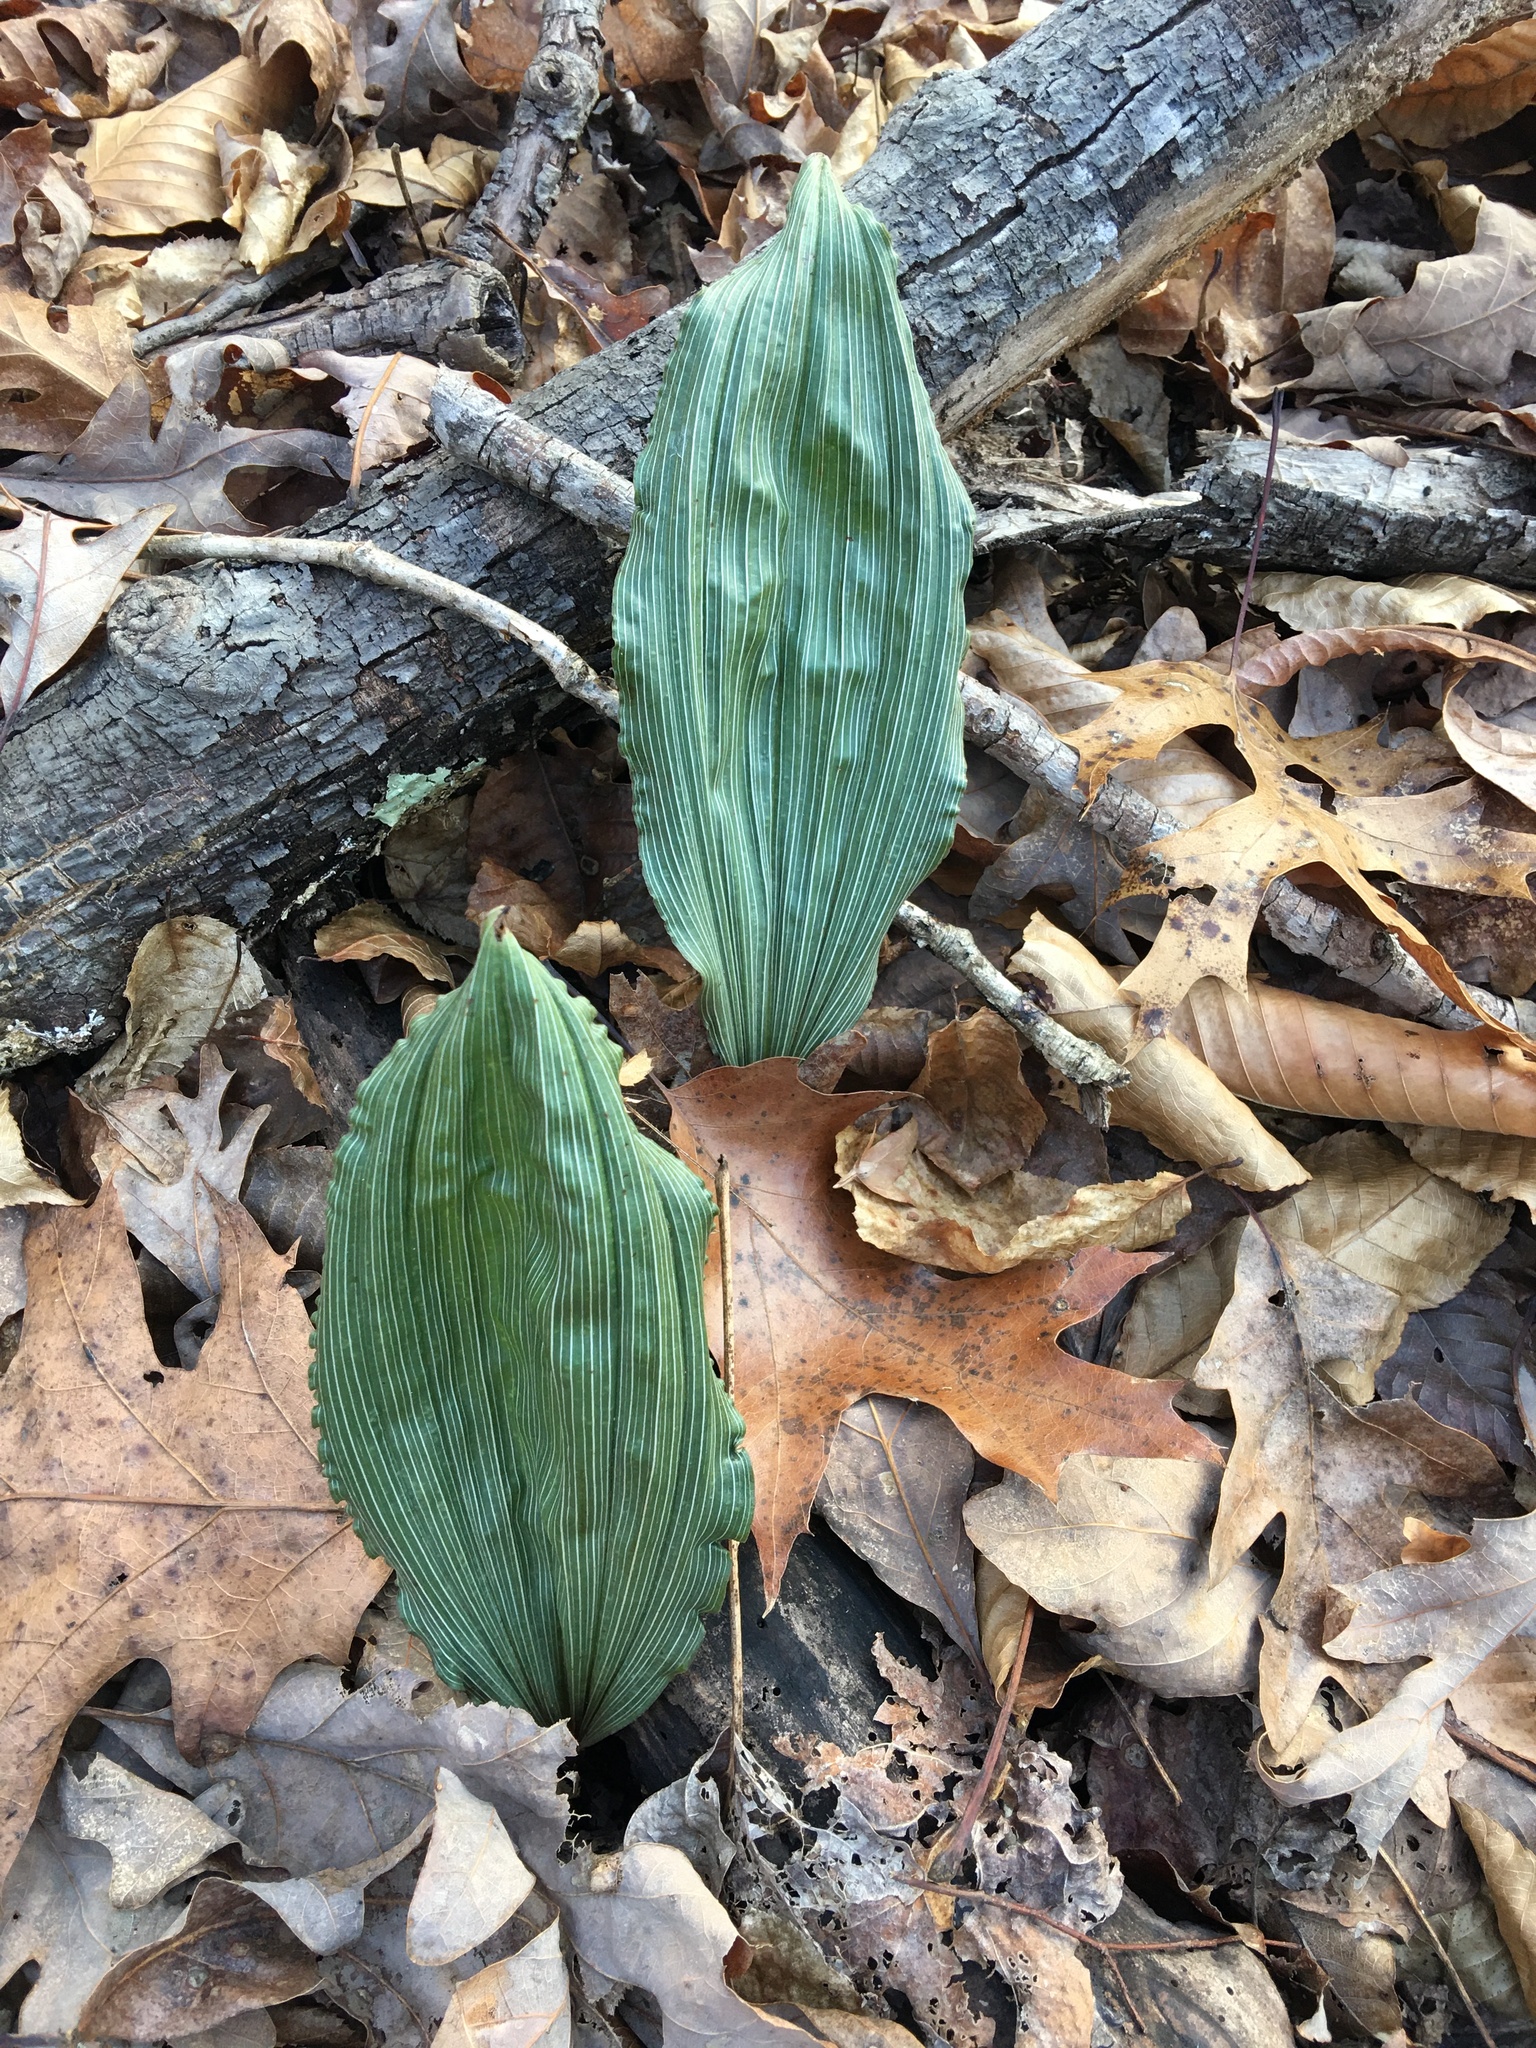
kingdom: Plantae
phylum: Tracheophyta
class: Liliopsida
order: Asparagales
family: Orchidaceae
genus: Aplectrum
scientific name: Aplectrum hyemale
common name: Adam-and-eve
